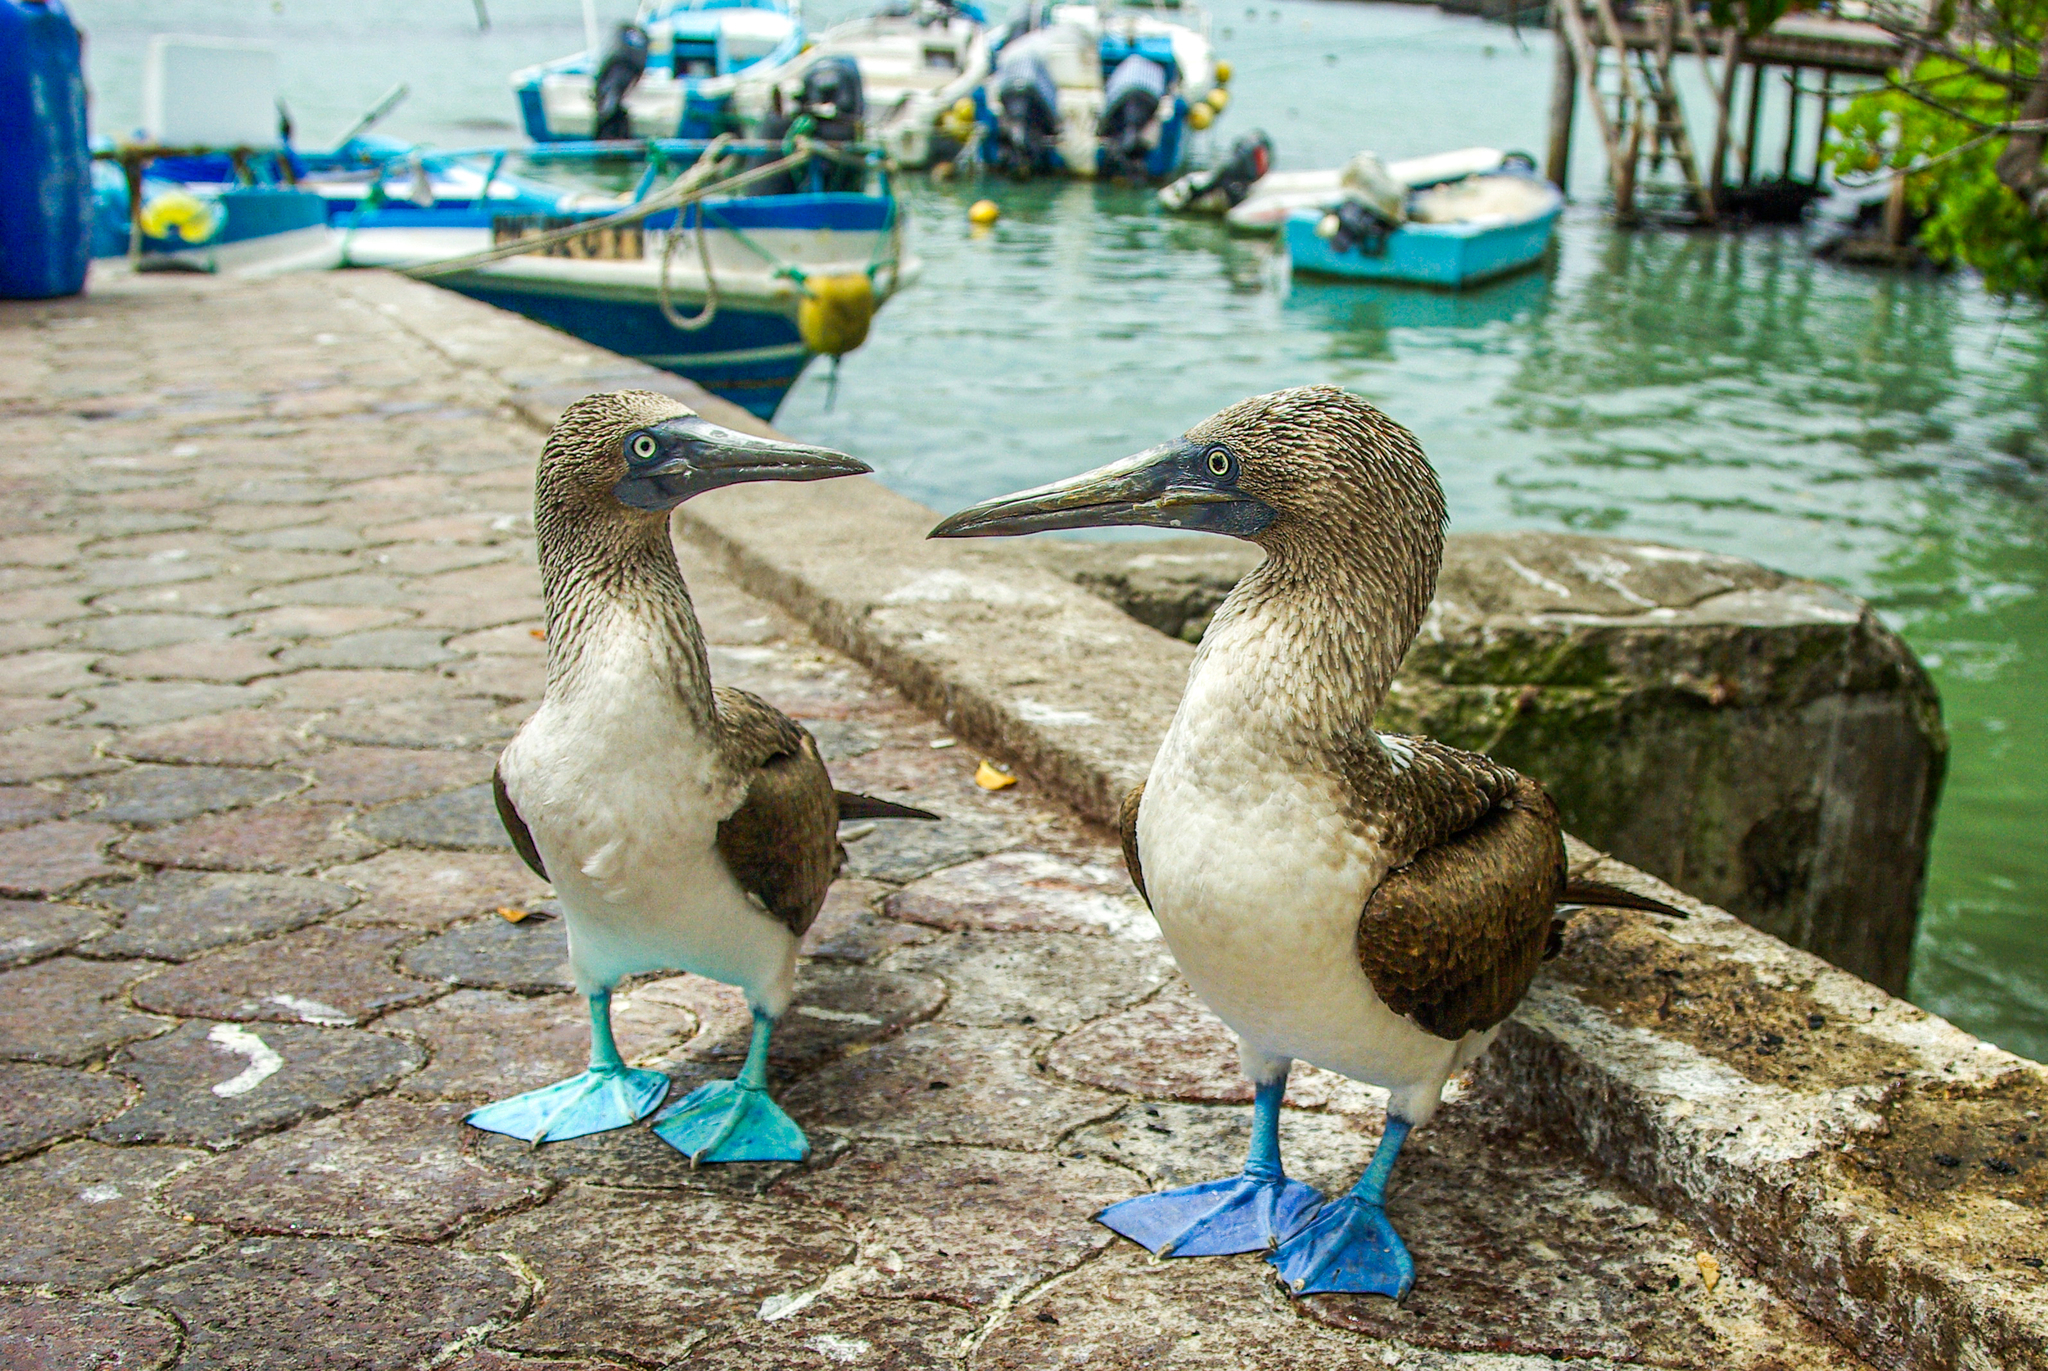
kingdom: Animalia
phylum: Chordata
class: Aves
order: Suliformes
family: Sulidae
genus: Sula
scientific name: Sula nebouxii
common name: Blue-footed booby
